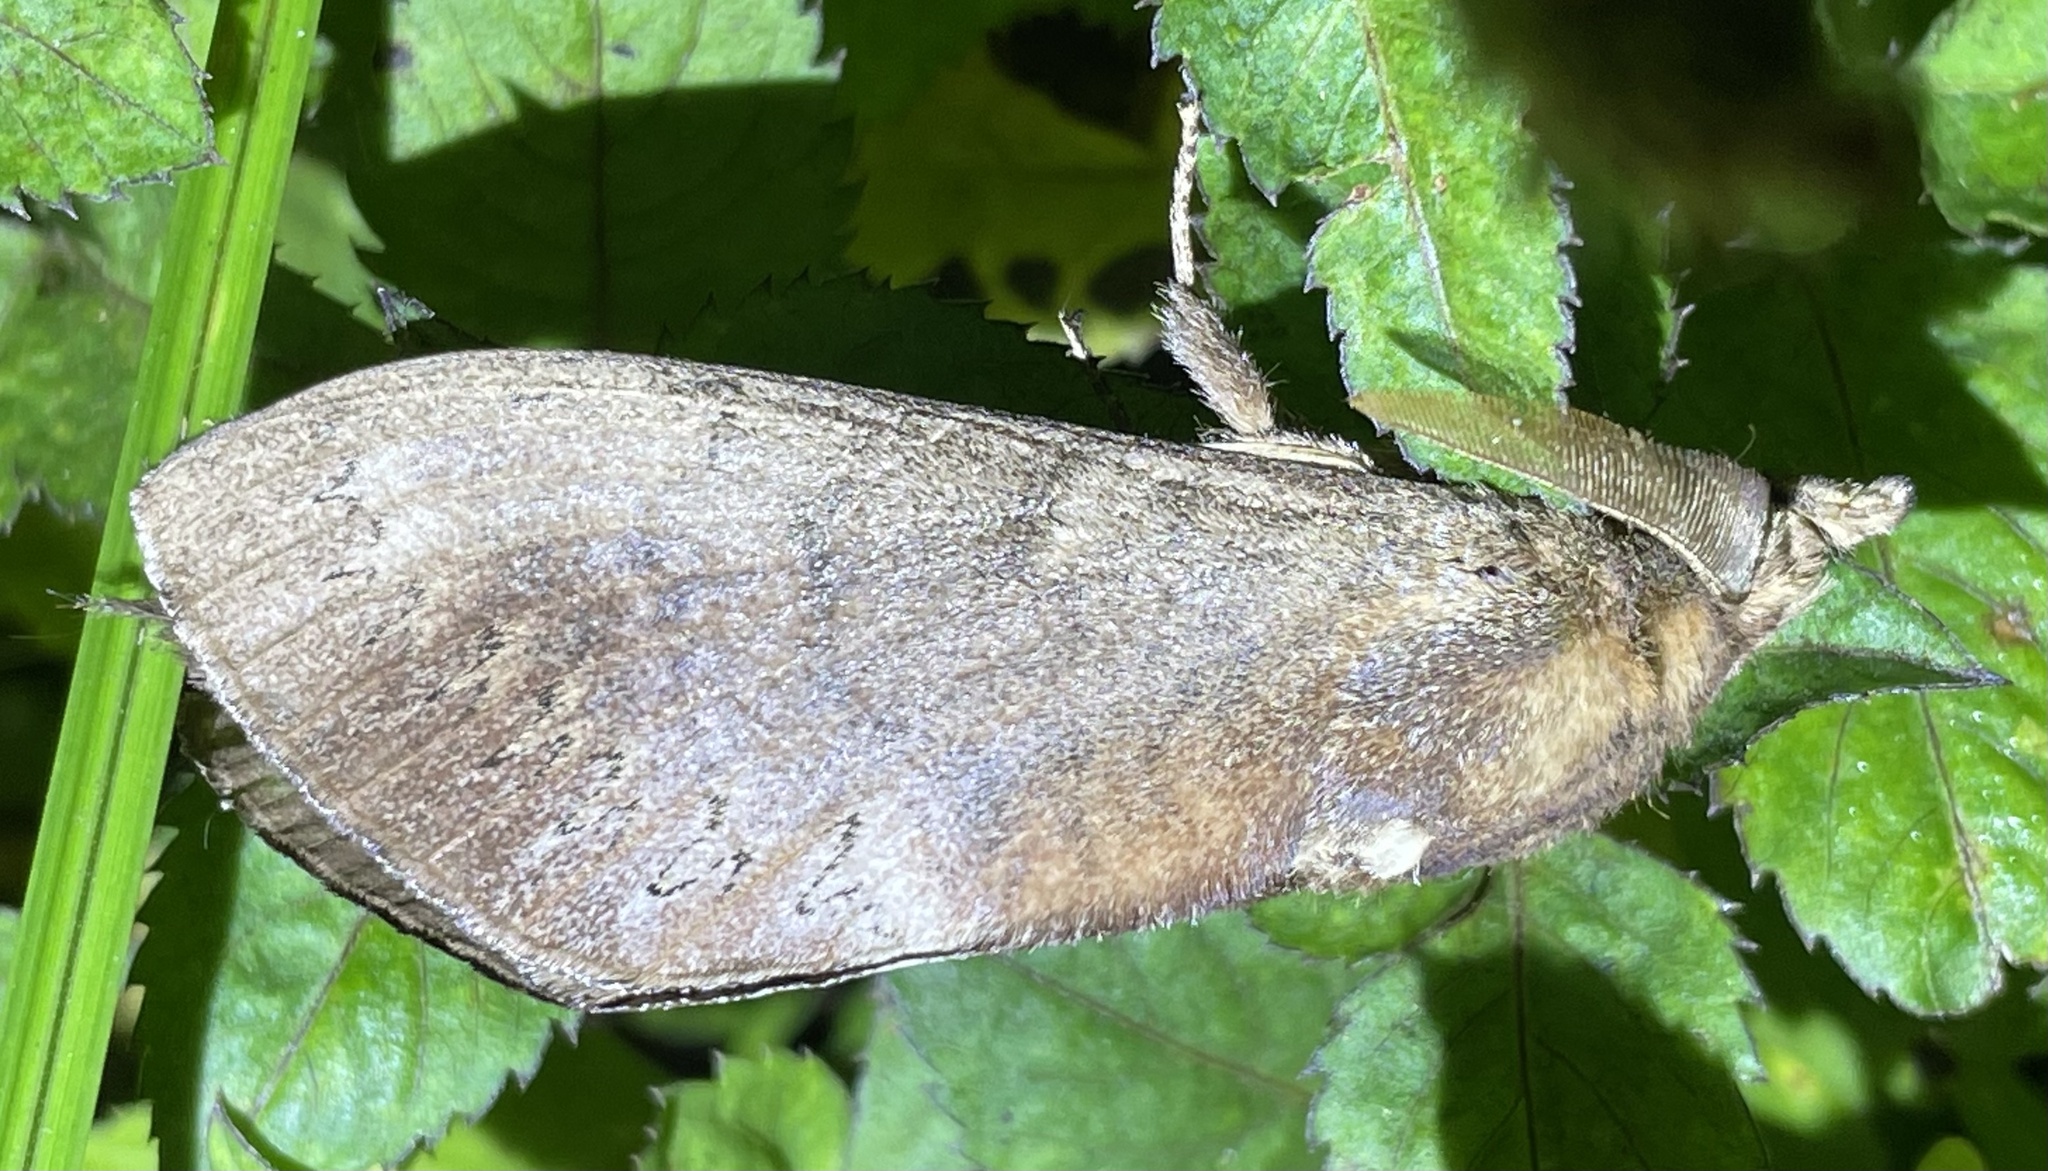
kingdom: Animalia
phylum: Arthropoda
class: Insecta
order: Lepidoptera
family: Lasiocampidae
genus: Catalebeda
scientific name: Catalebeda cuneilinea
